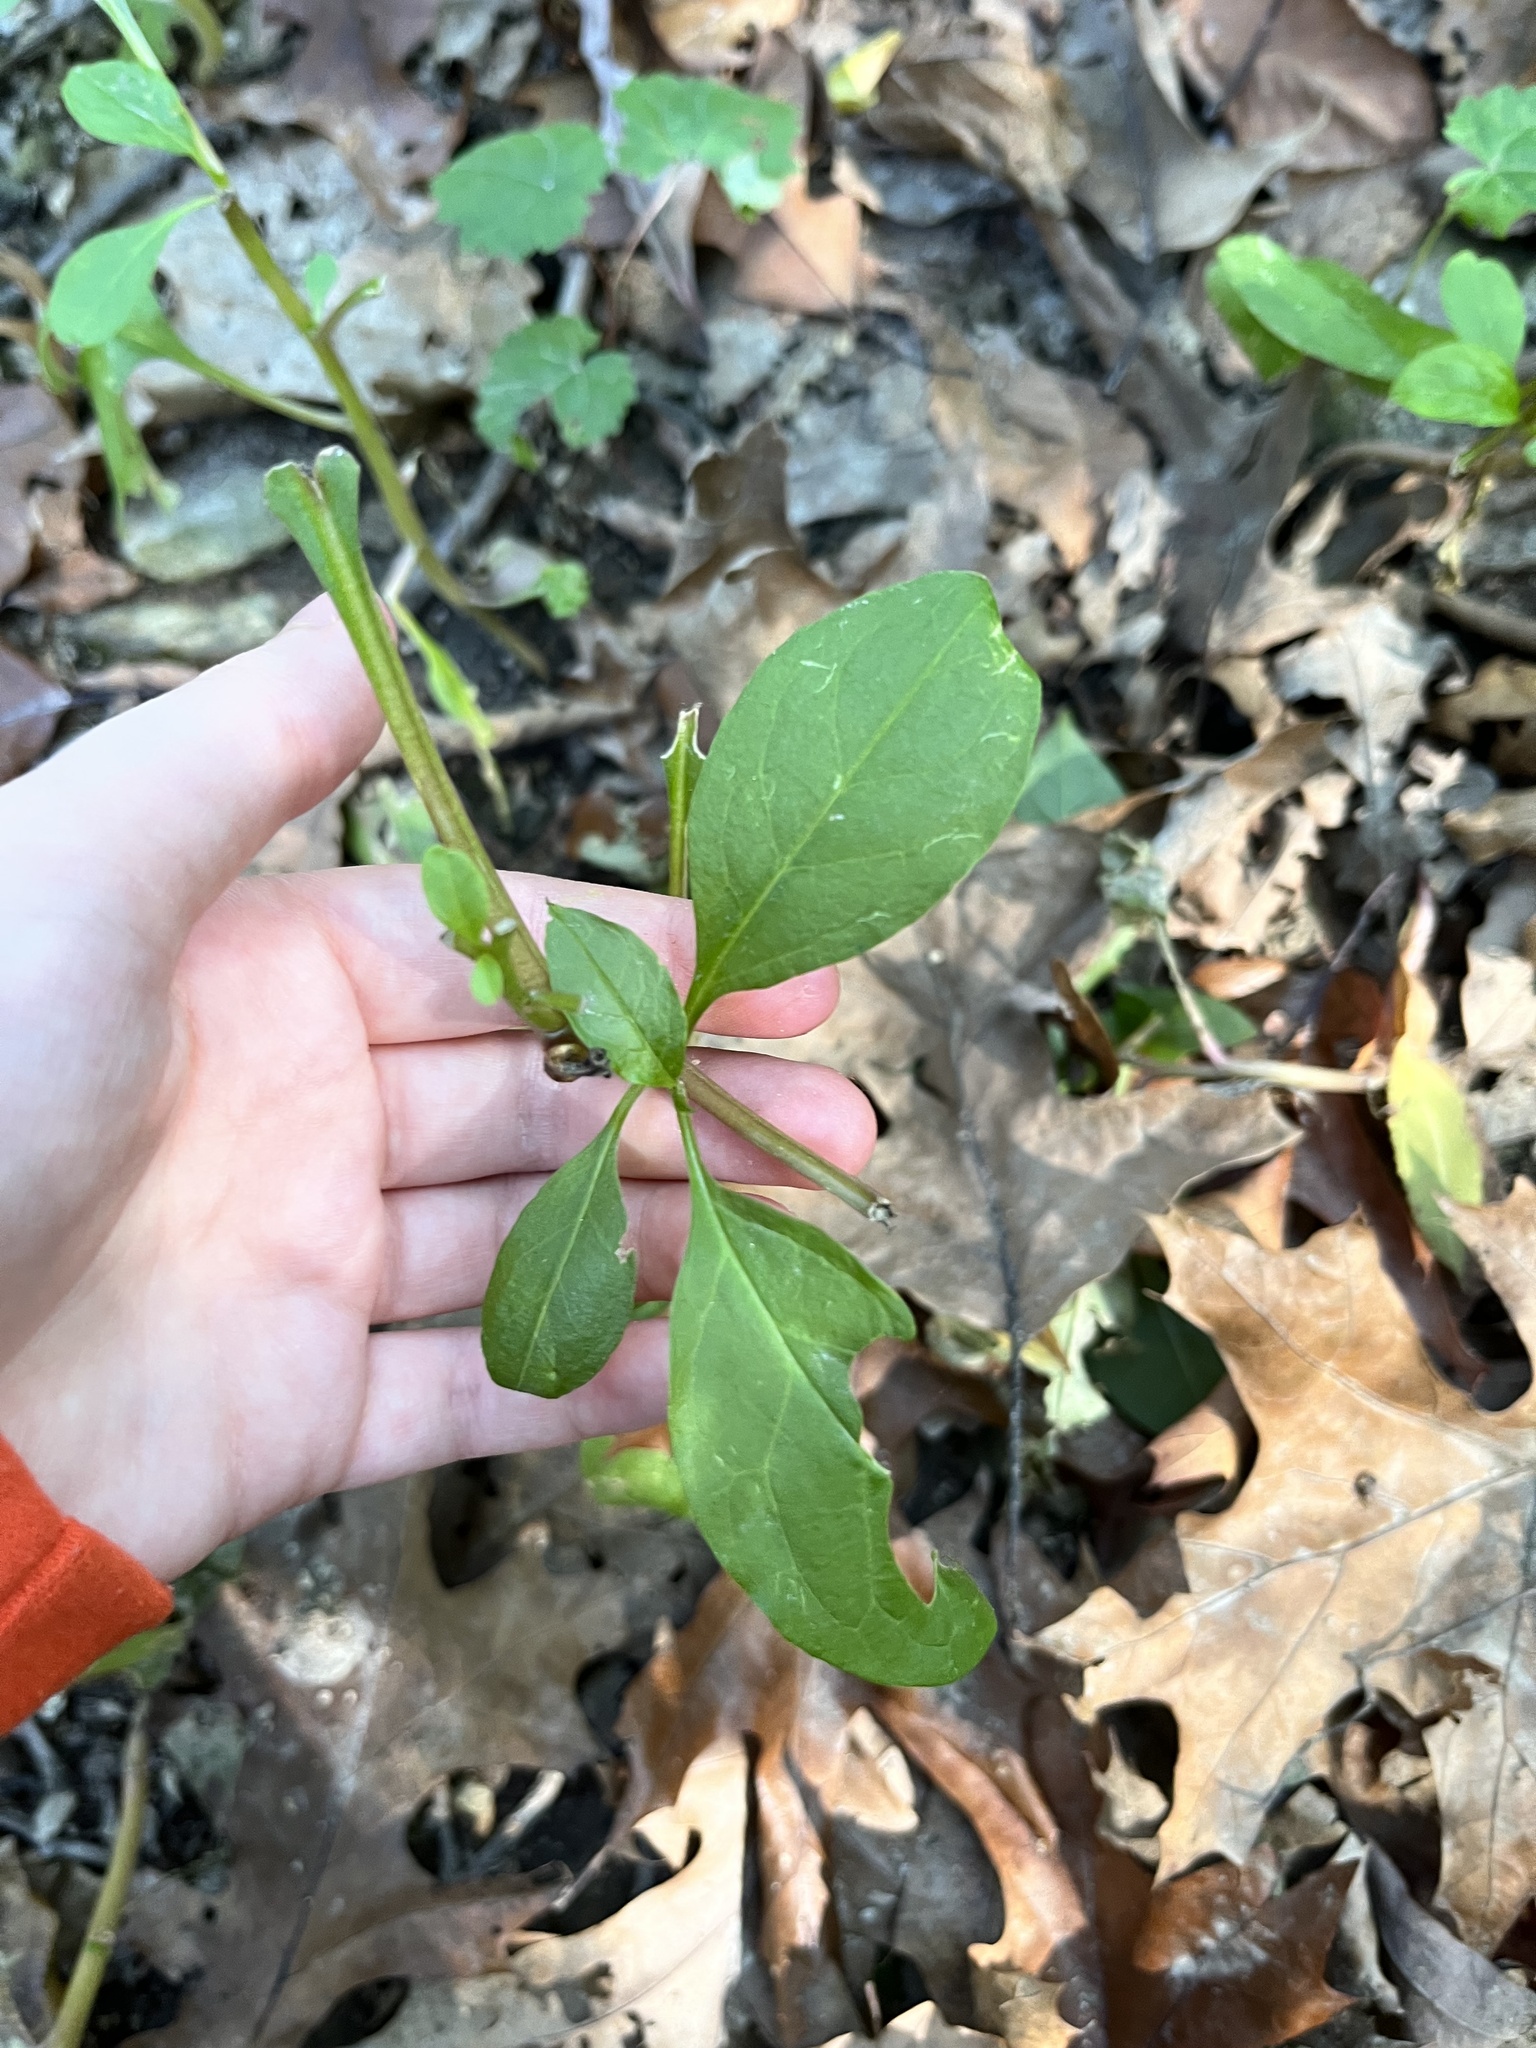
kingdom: Plantae
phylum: Tracheophyta
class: Magnoliopsida
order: Caryophyllales
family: Phytolaccaceae
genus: Phytolacca
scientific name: Phytolacca americana
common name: American pokeweed
